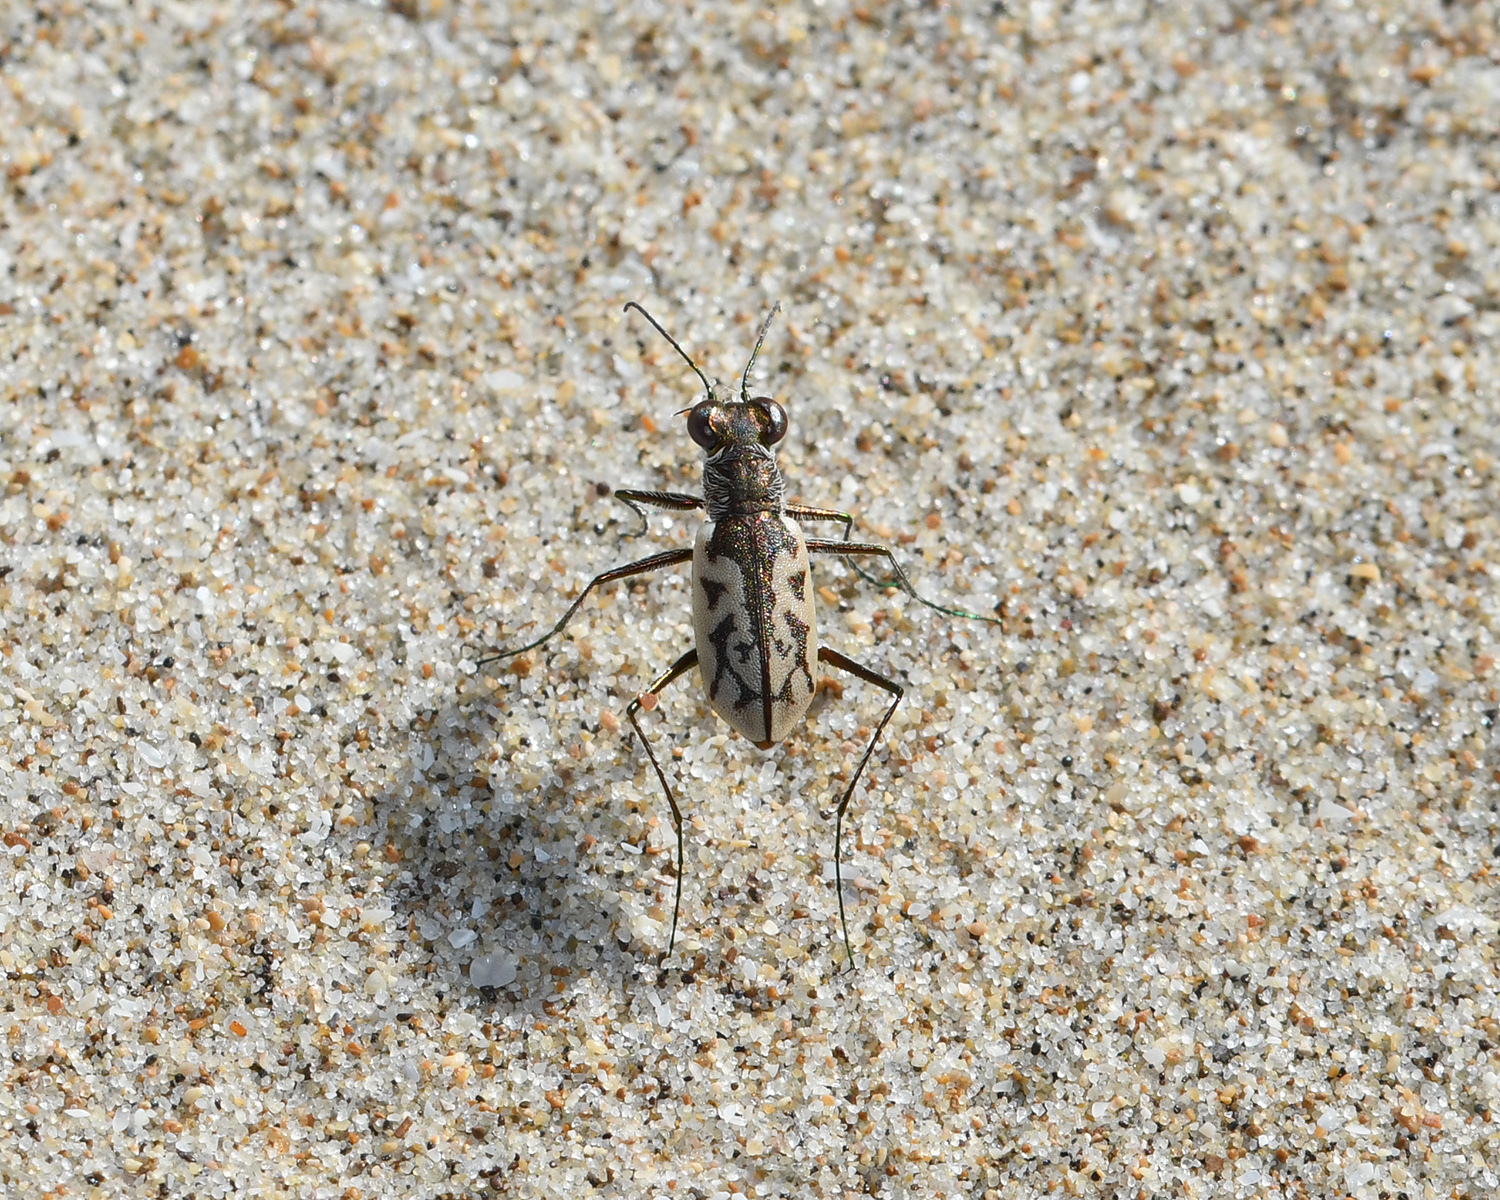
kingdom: Animalia
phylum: Arthropoda
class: Insecta
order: Coleoptera
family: Carabidae
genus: Cylindera
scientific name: Cylindera suturalis
